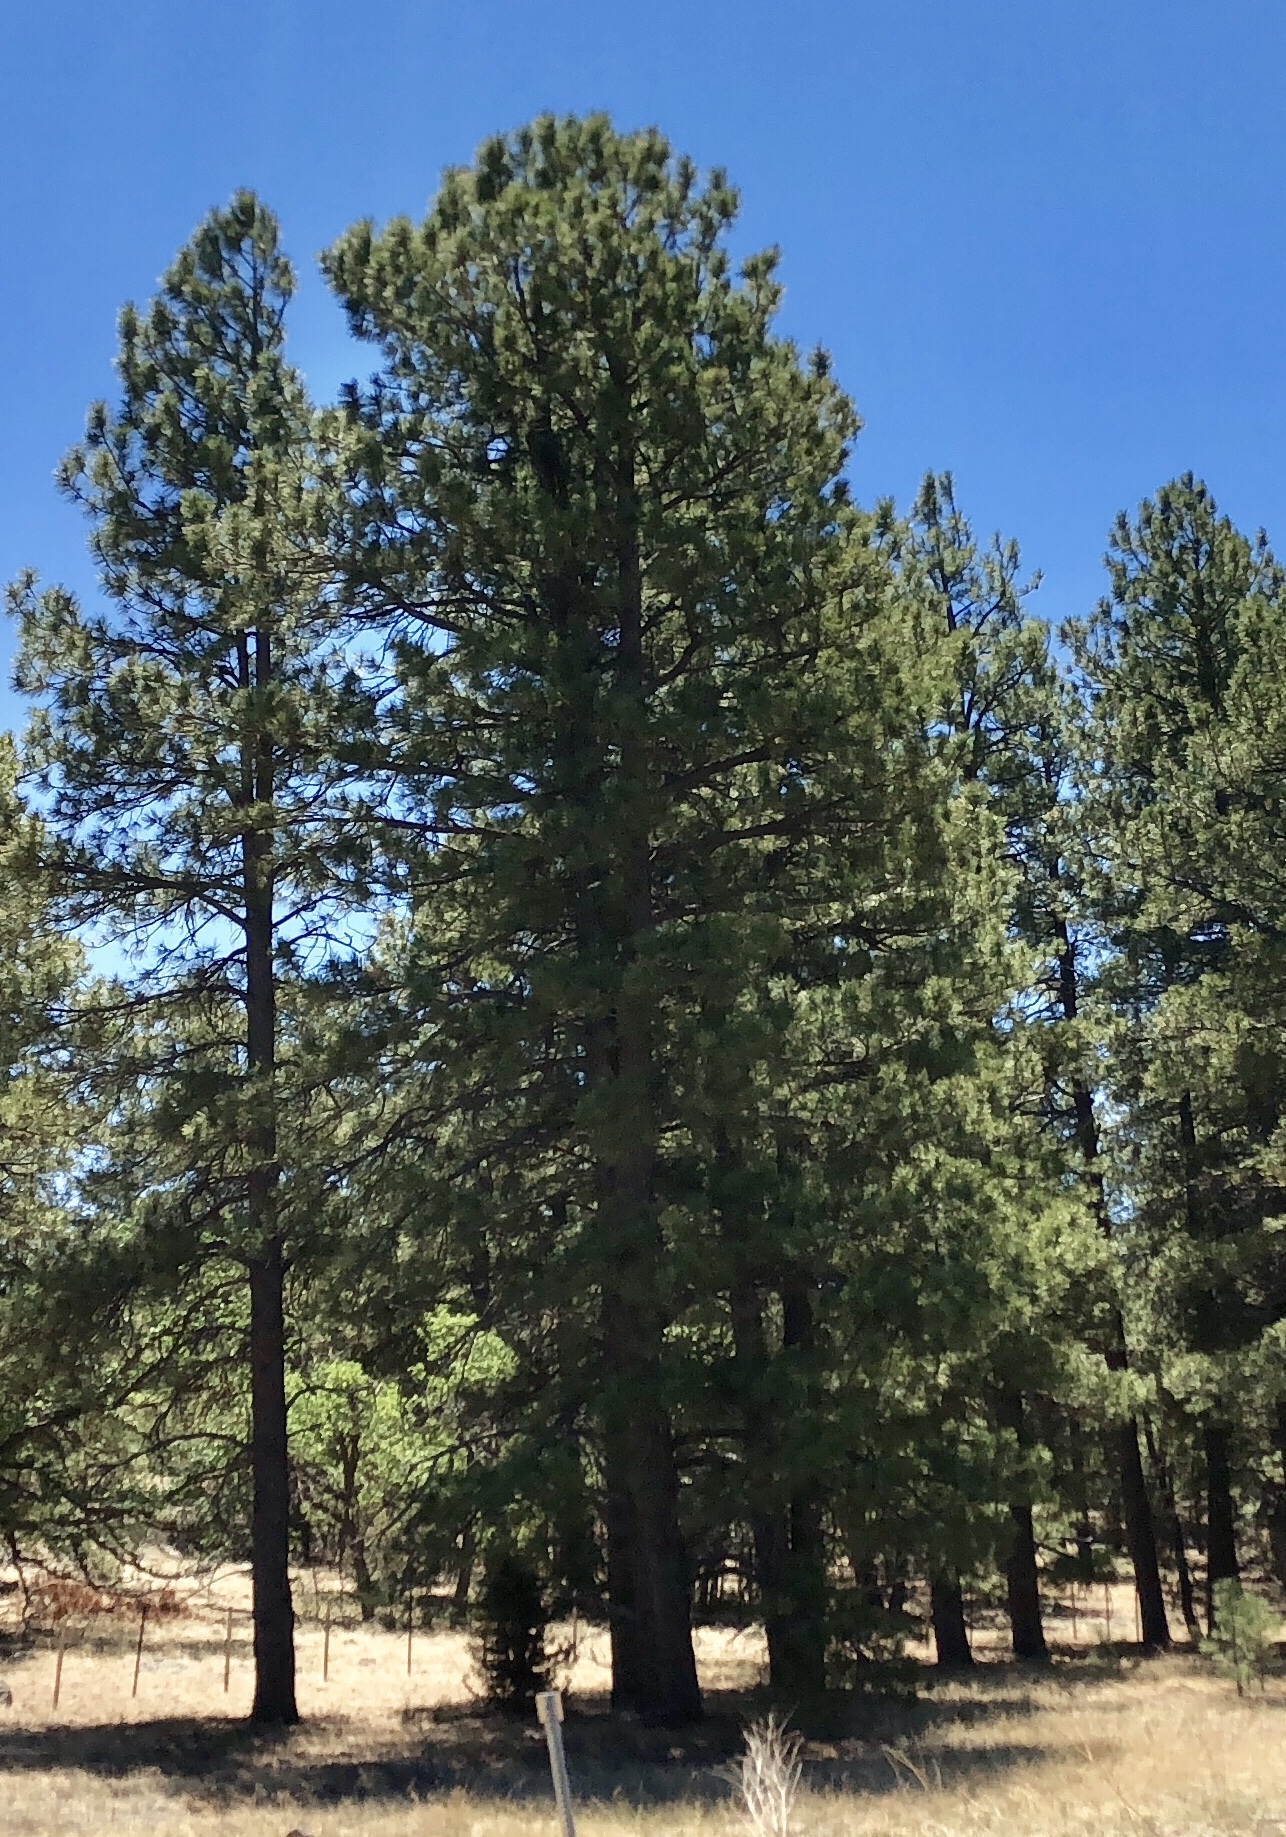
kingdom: Plantae
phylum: Tracheophyta
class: Pinopsida
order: Pinales
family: Pinaceae
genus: Pinus
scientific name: Pinus ponderosa
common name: Western yellow-pine
